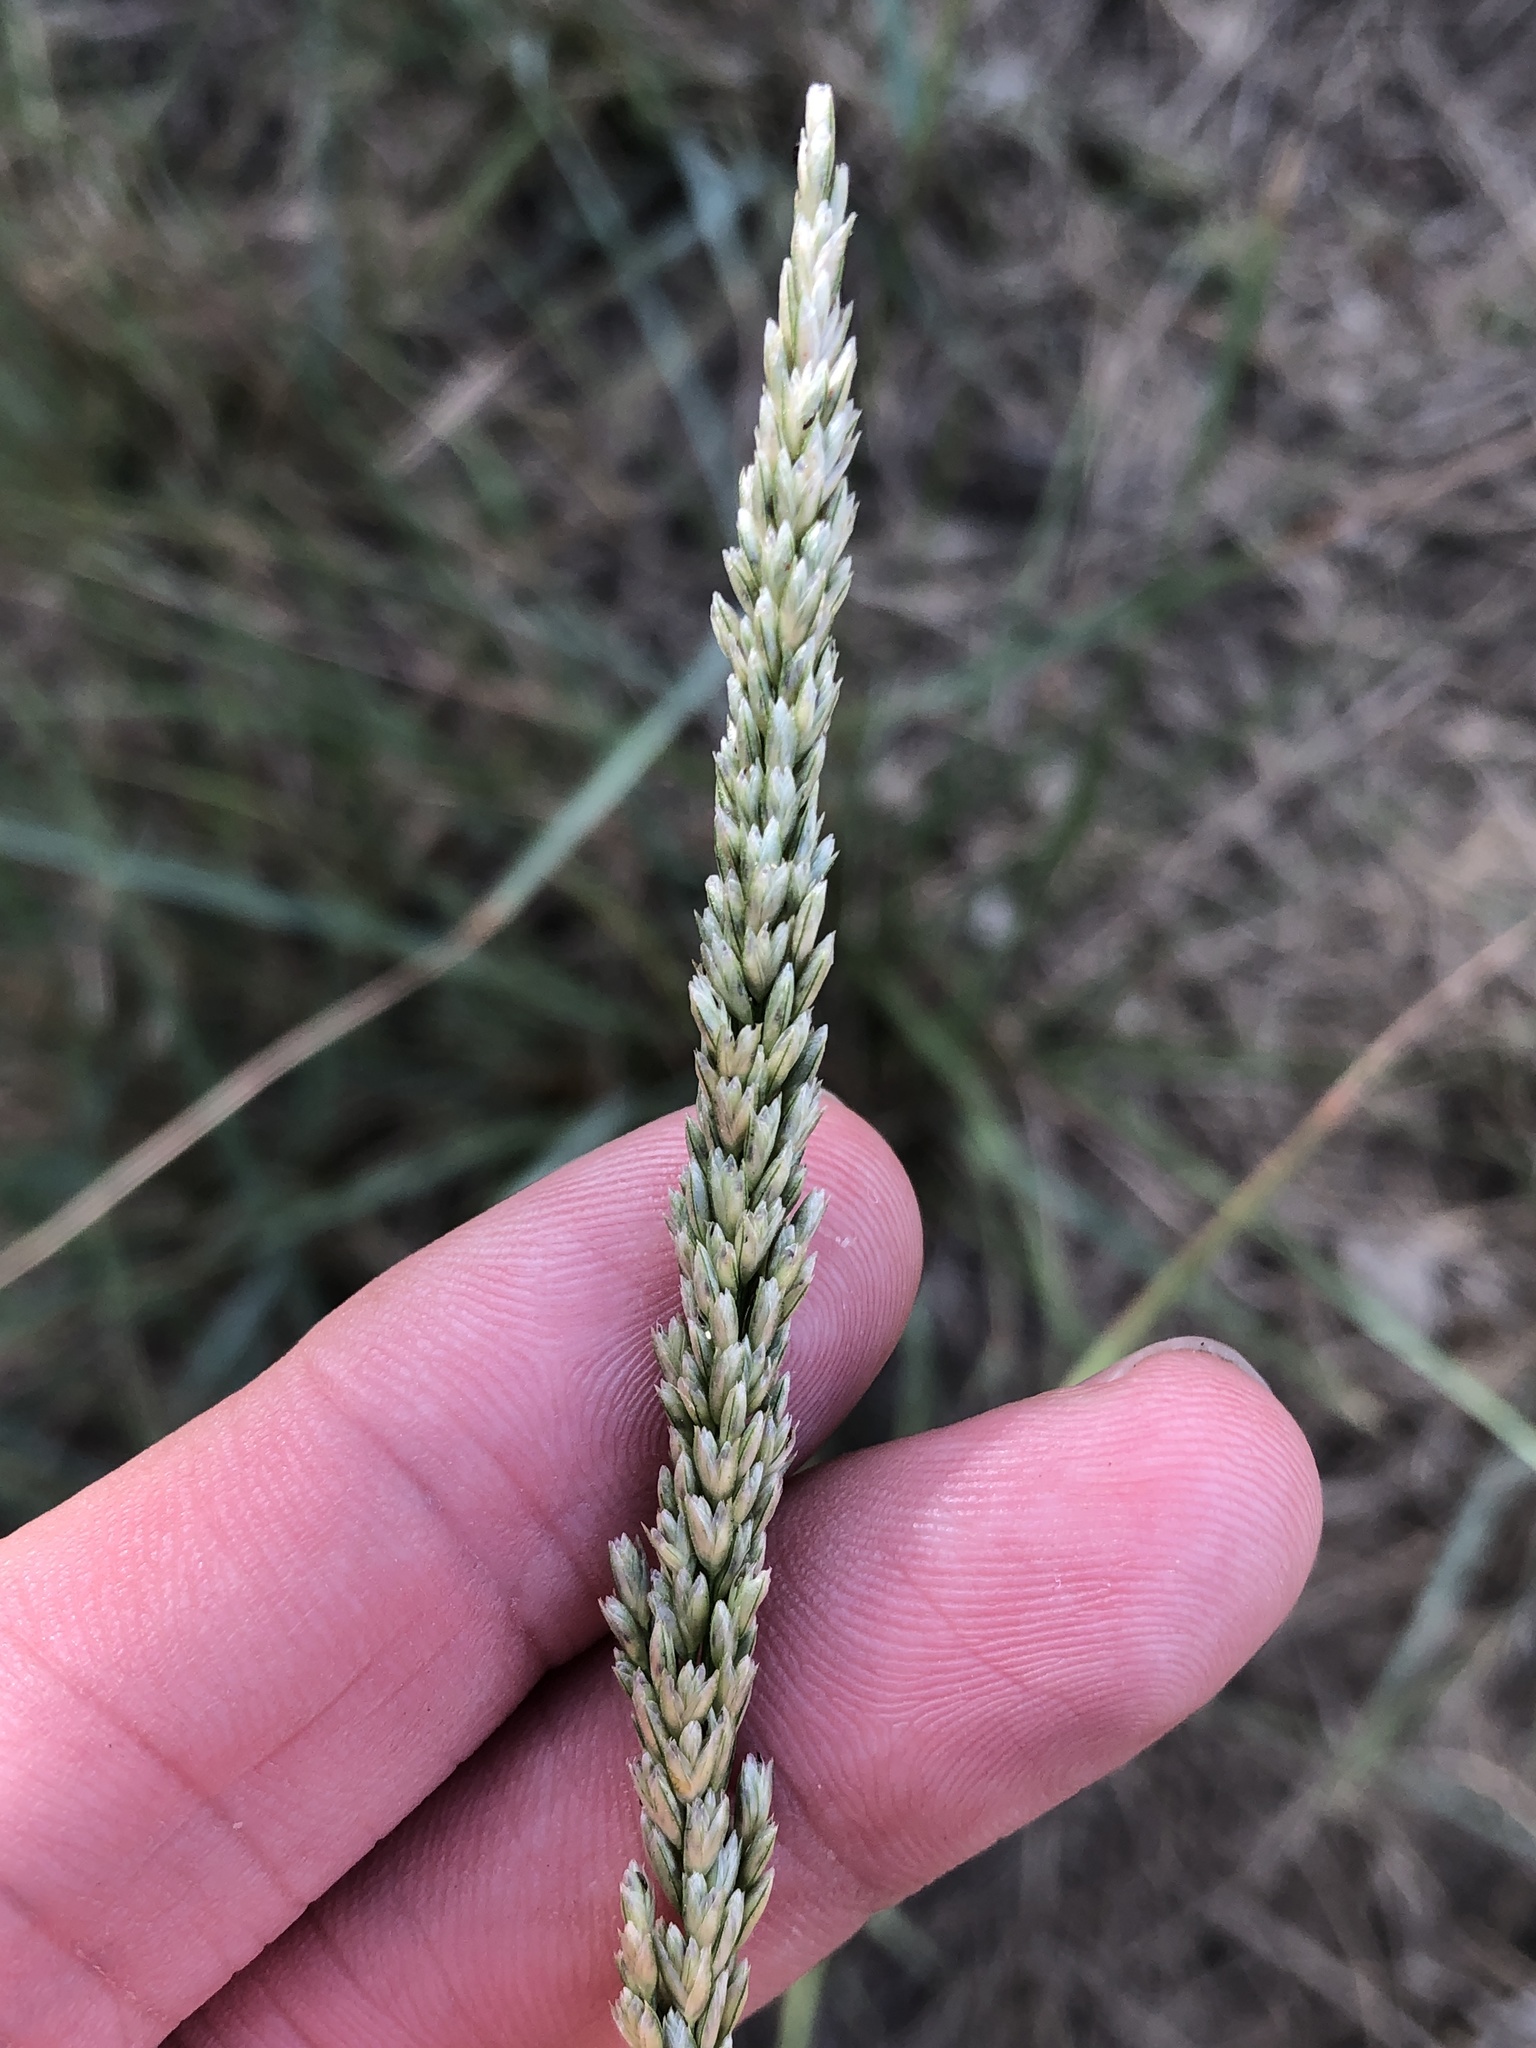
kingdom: Plantae
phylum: Tracheophyta
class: Liliopsida
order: Poales
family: Poaceae
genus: Tridens
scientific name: Tridens albescens
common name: White tridens
